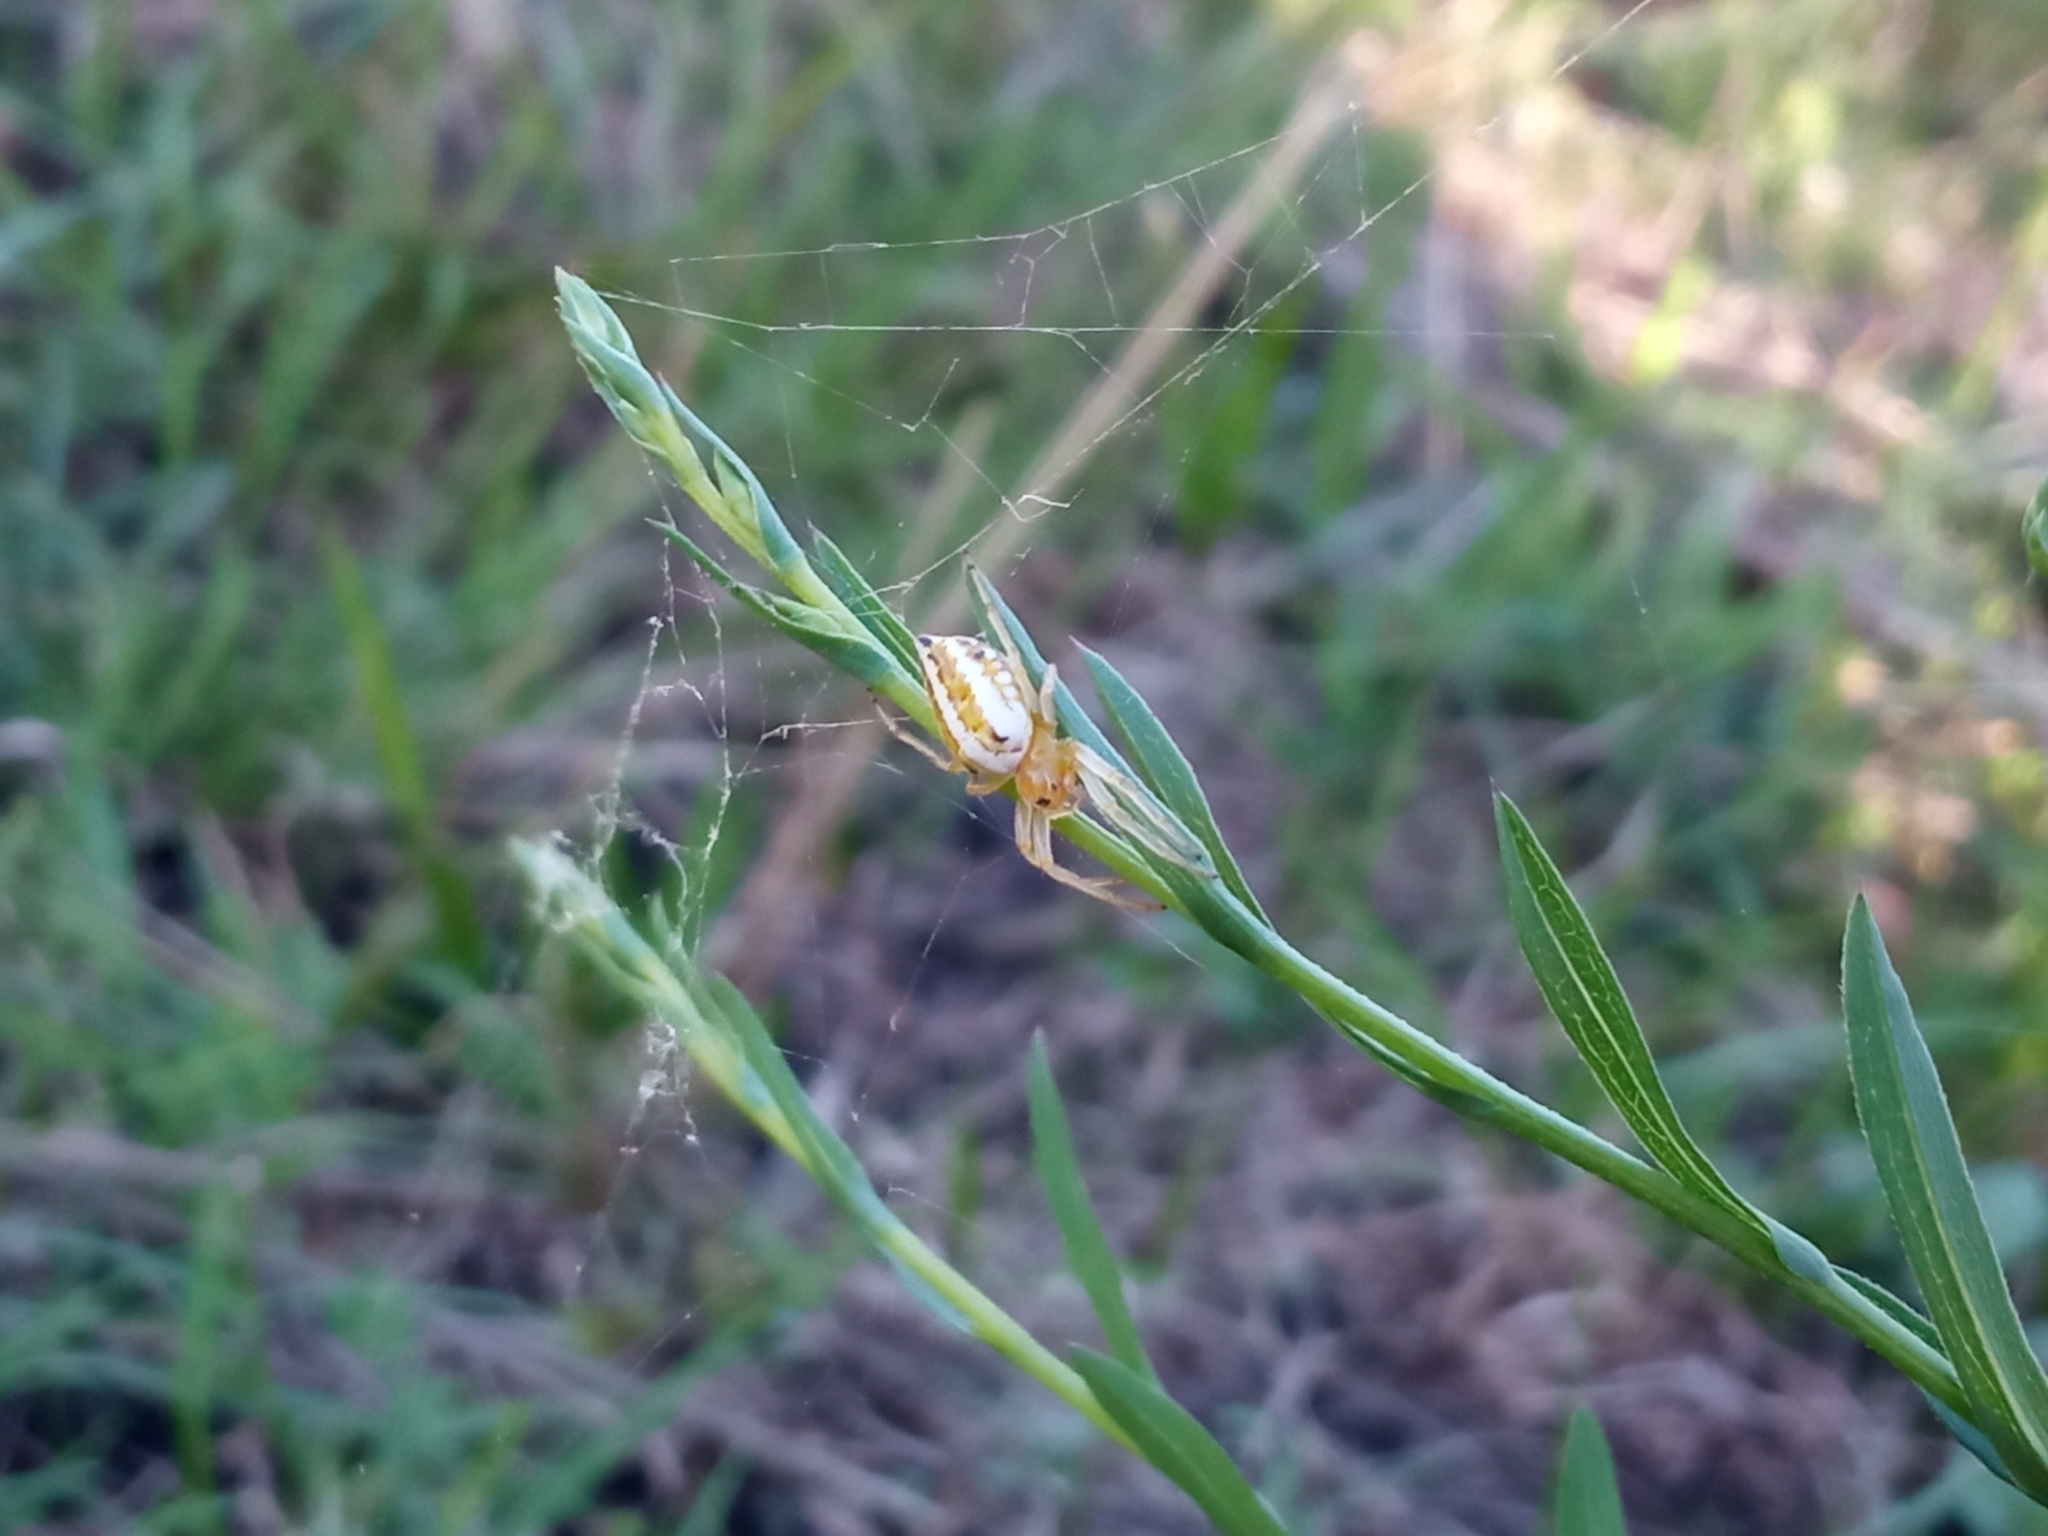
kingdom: Animalia
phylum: Arthropoda
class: Arachnida
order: Araneae
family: Araneidae
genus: Alpaida
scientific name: Alpaida rubellula
